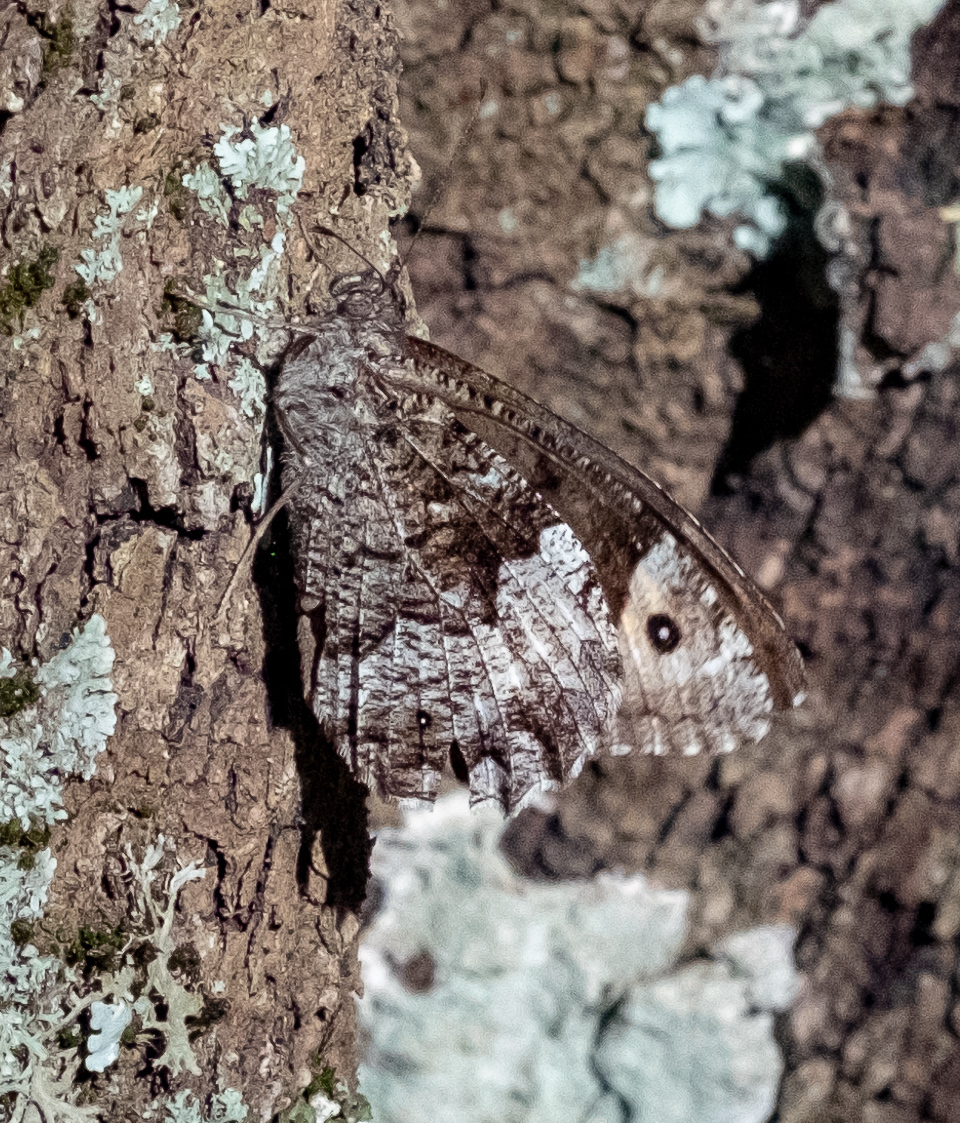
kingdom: Animalia
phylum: Arthropoda
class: Insecta
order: Lepidoptera
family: Nymphalidae
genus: Hipparchia
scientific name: Hipparchia caroli
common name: Moroccan rock grayling
